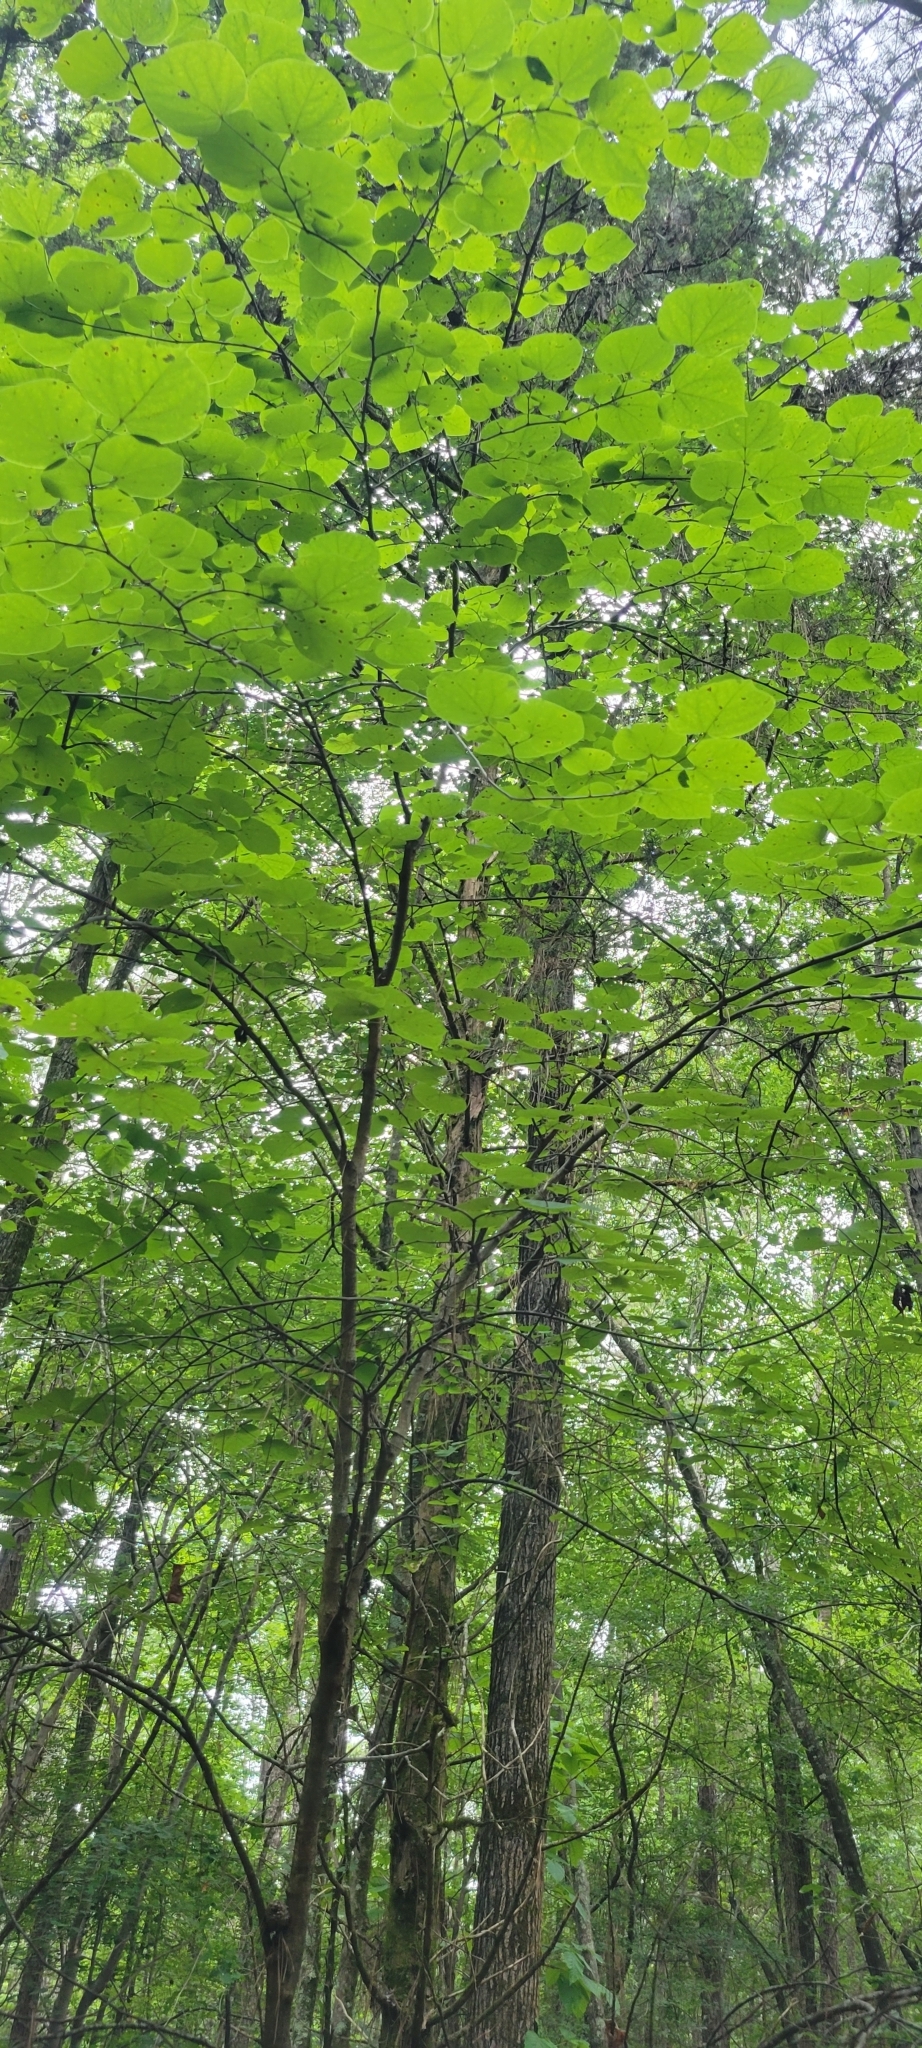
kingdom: Plantae
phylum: Tracheophyta
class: Magnoliopsida
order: Fabales
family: Fabaceae
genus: Cercis
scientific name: Cercis canadensis
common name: Eastern redbud
